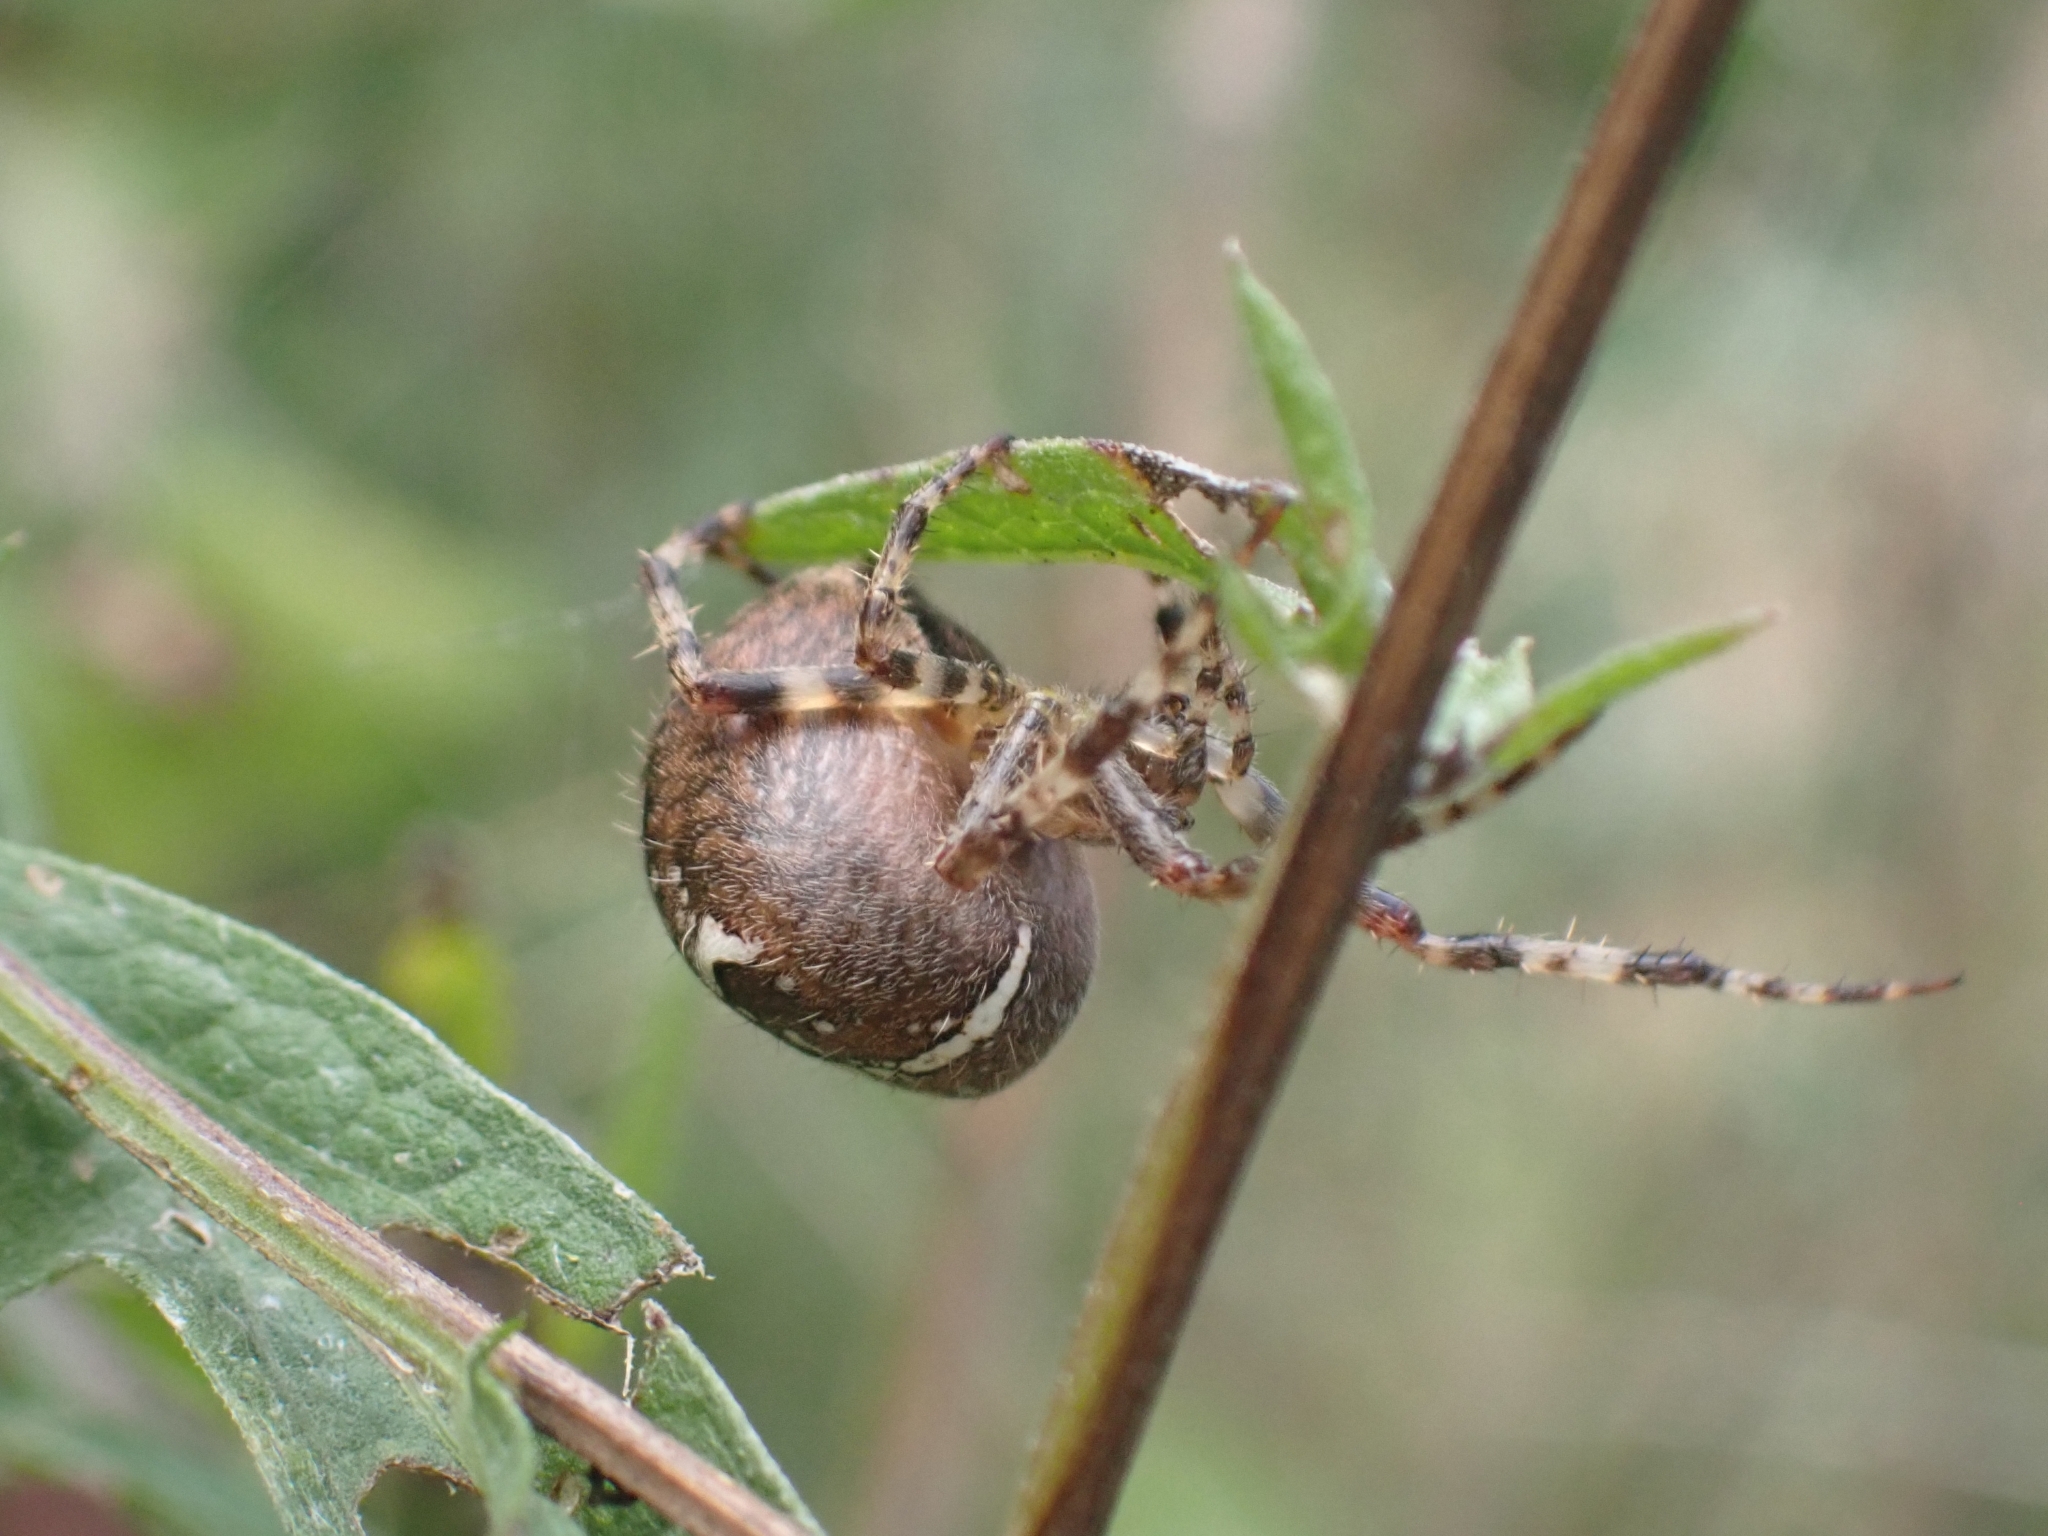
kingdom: Animalia
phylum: Arthropoda
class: Arachnida
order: Araneae
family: Araneidae
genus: Araneus
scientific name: Araneus diadematus
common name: Cross orbweaver
